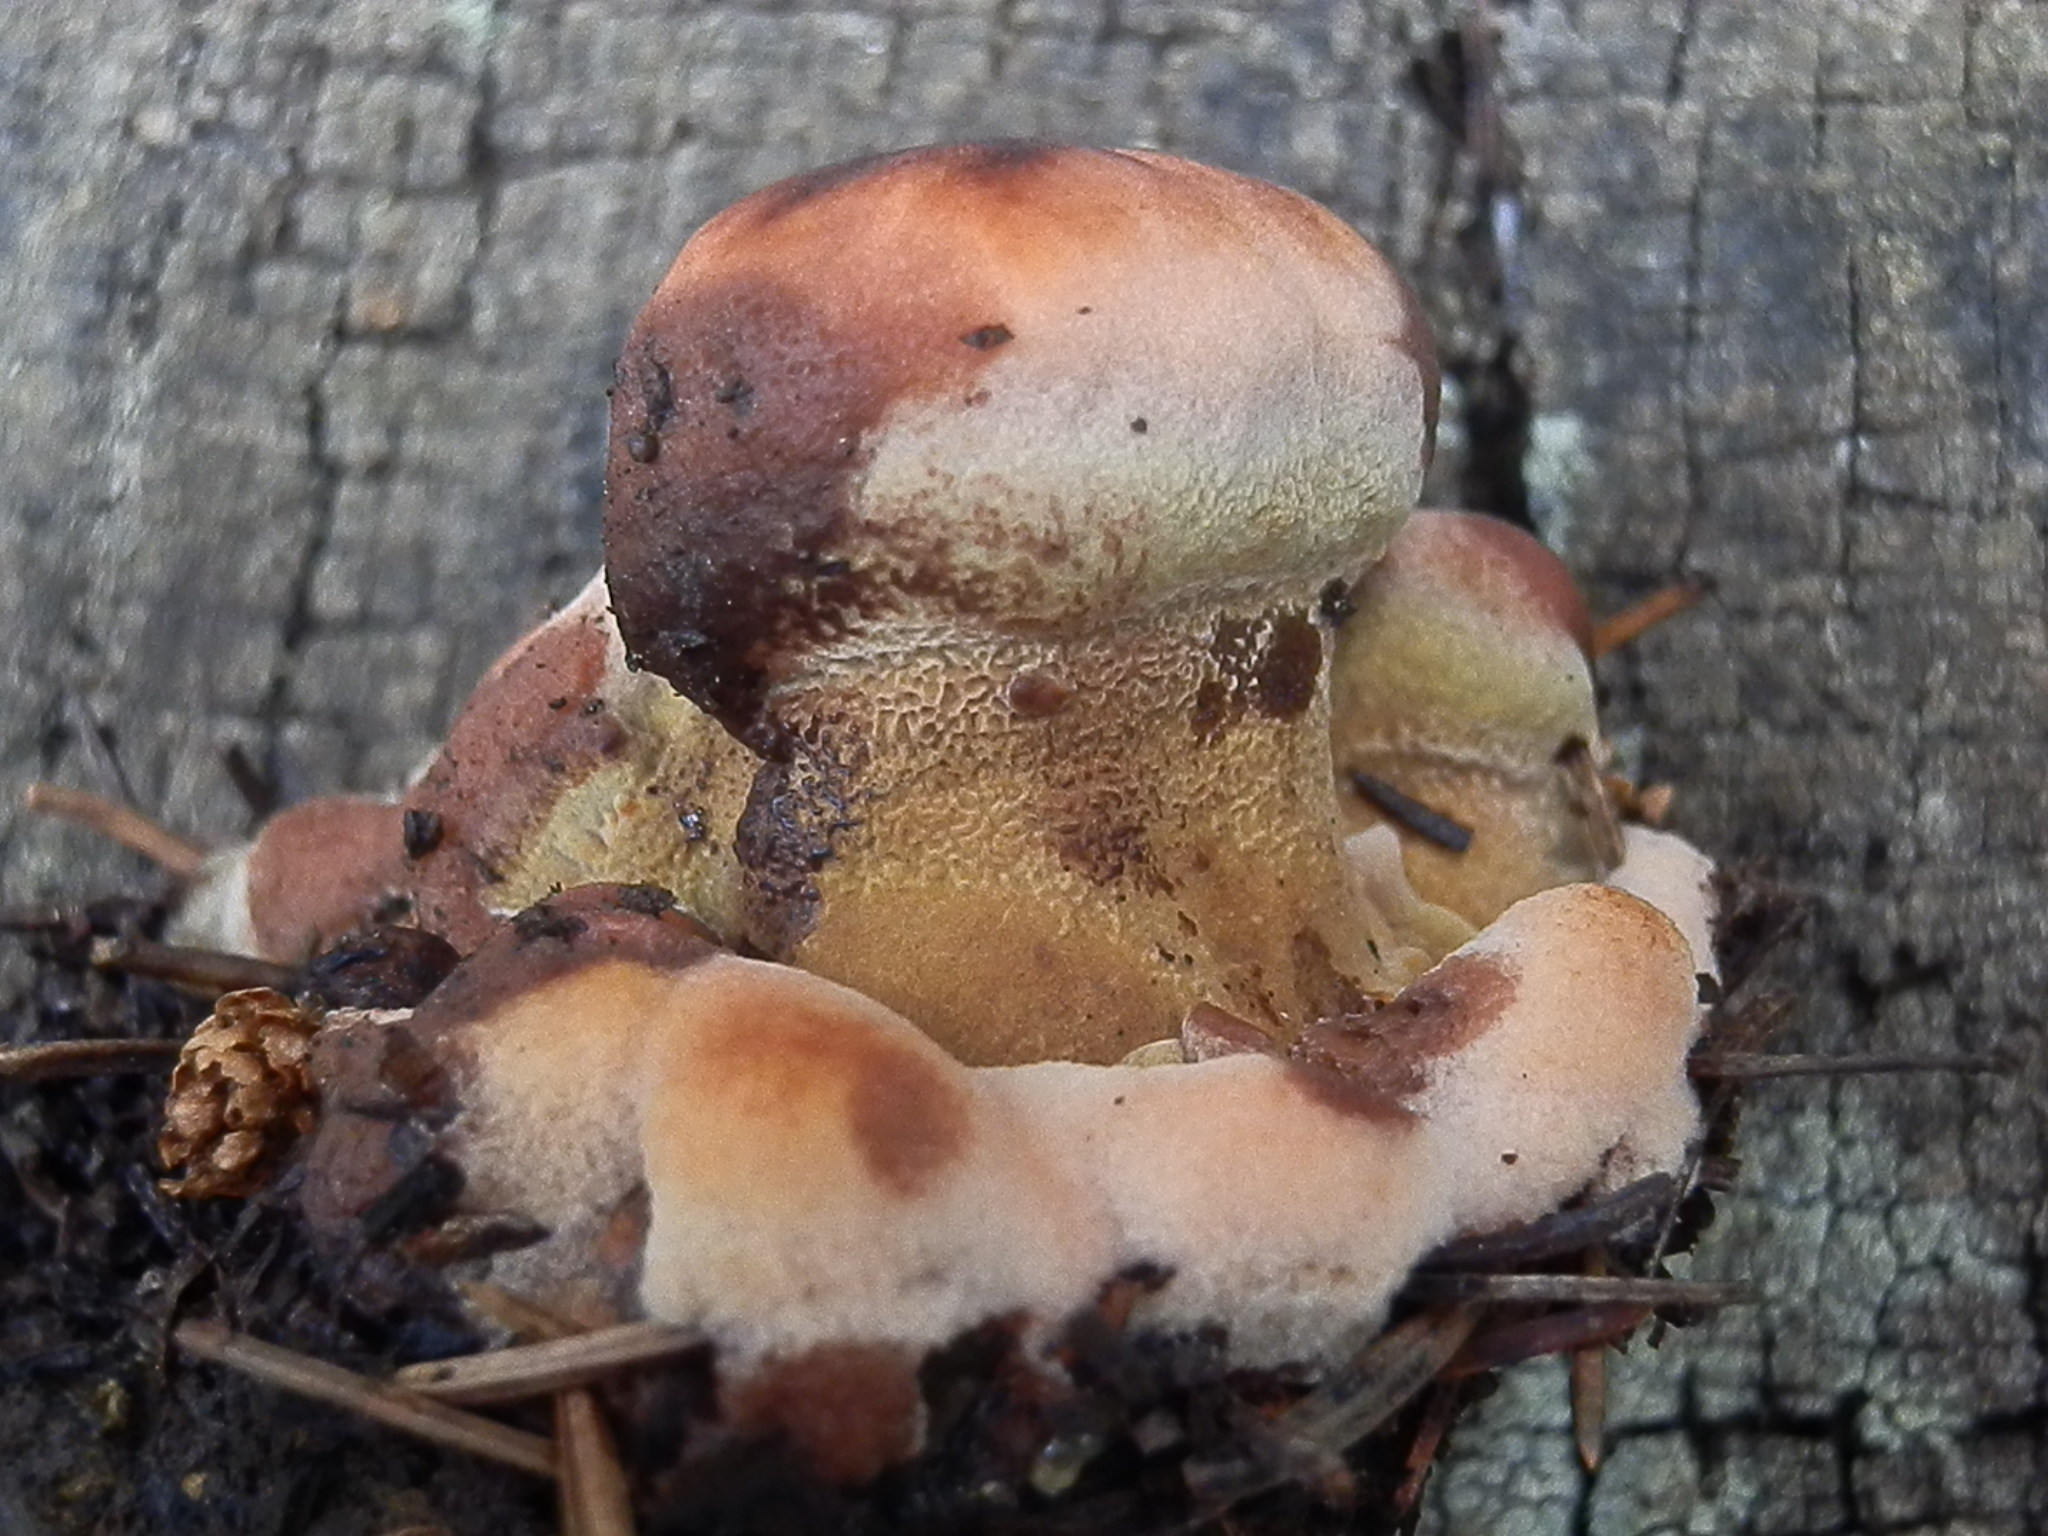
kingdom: Fungi
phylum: Basidiomycota
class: Agaricomycetes
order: Polyporales
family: Laetiporaceae
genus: Phaeolus
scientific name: Phaeolus schweinitzii
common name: Dyer's mazegill
